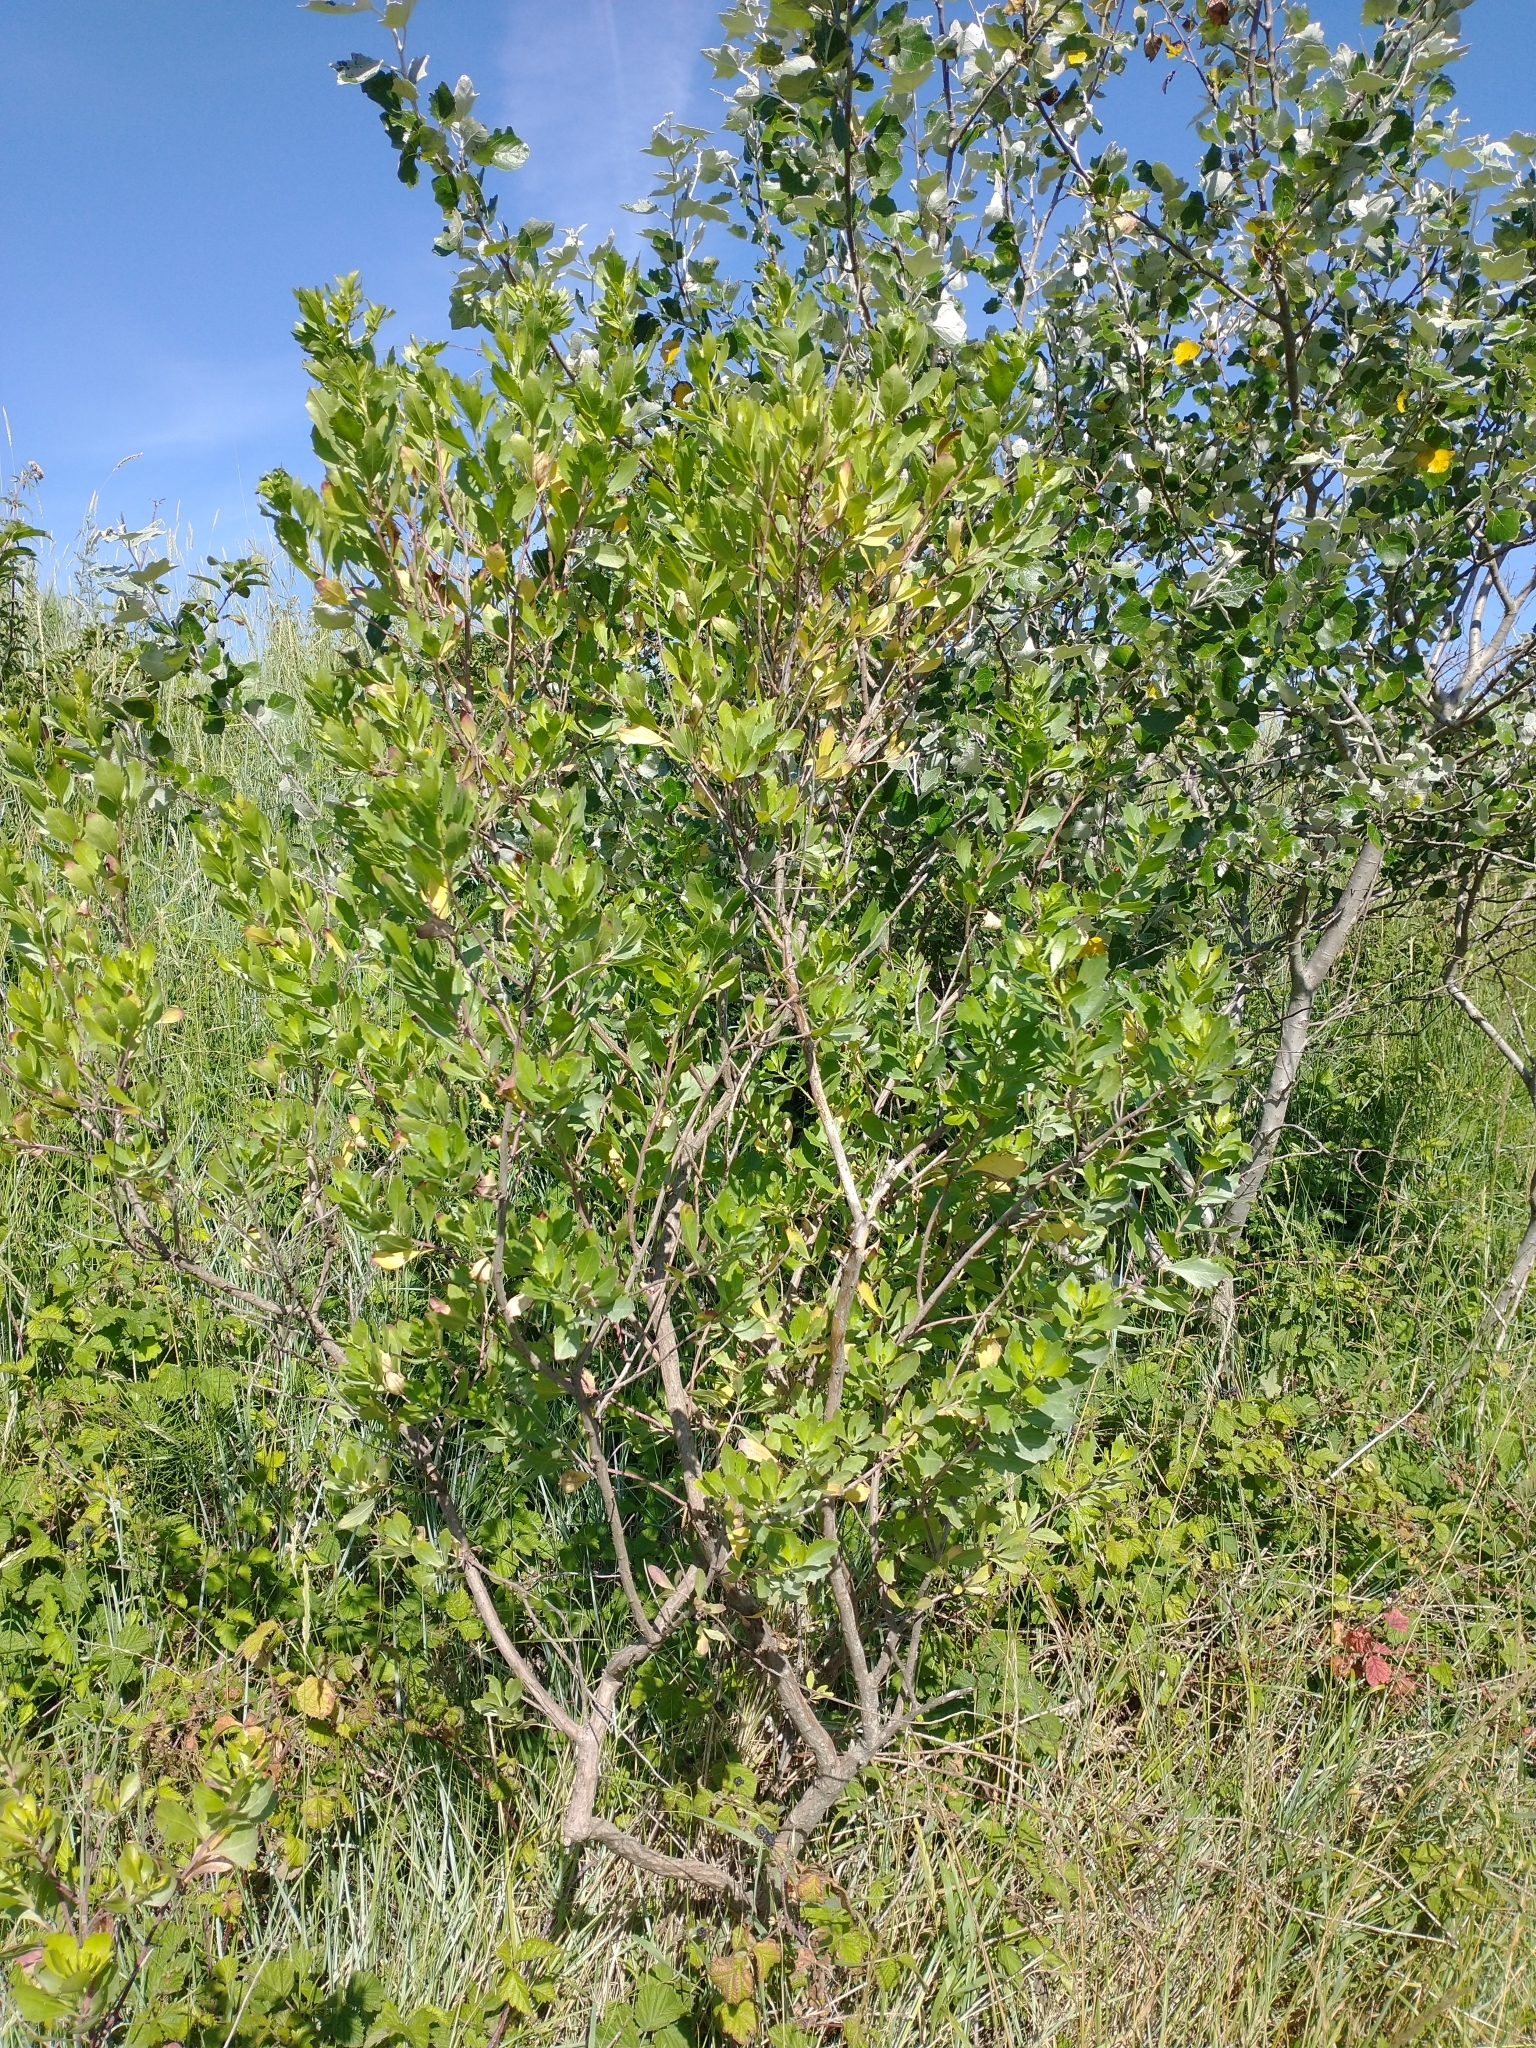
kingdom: Plantae
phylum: Tracheophyta
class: Magnoliopsida
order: Asterales
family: Asteraceae
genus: Baccharis
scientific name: Baccharis halimifolia
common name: Eastern baccharis
